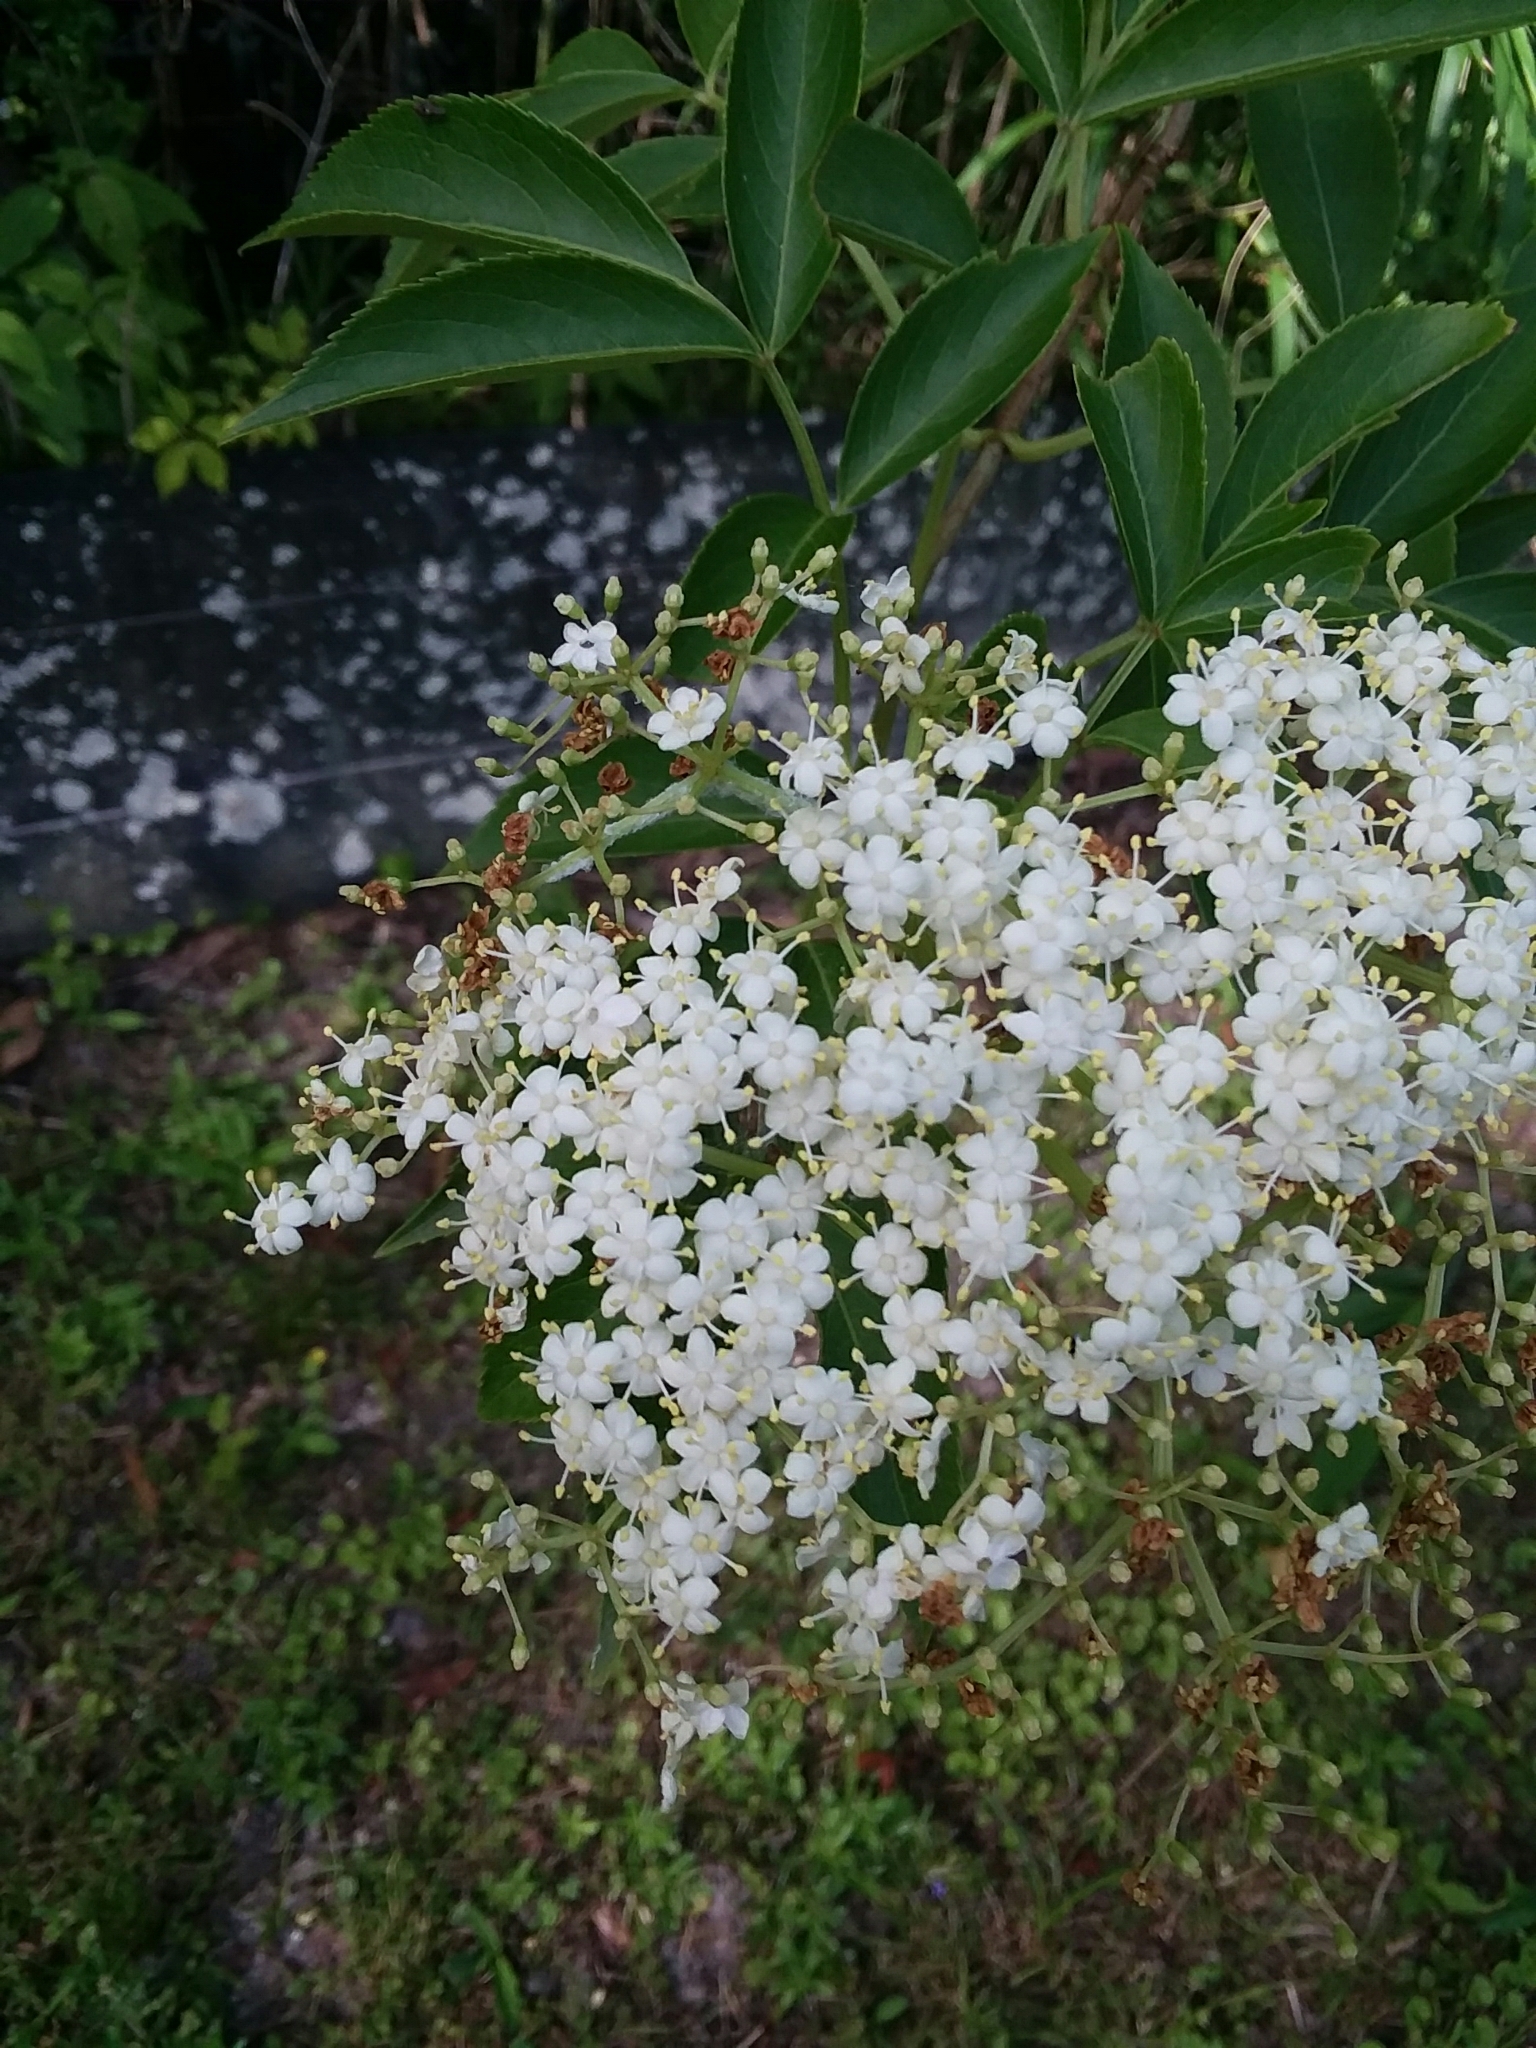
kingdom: Plantae
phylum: Tracheophyta
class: Magnoliopsida
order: Dipsacales
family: Viburnaceae
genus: Sambucus
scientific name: Sambucus canadensis
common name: American elder
